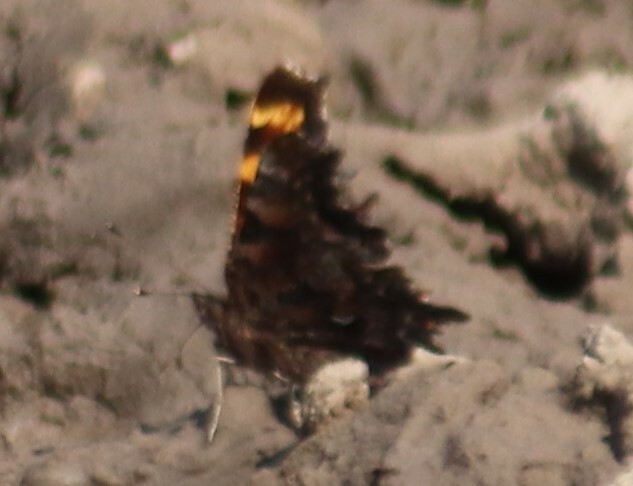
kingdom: Animalia
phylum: Arthropoda
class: Insecta
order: Lepidoptera
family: Nymphalidae
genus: Polygonia
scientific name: Polygonia faunus
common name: Green comma
